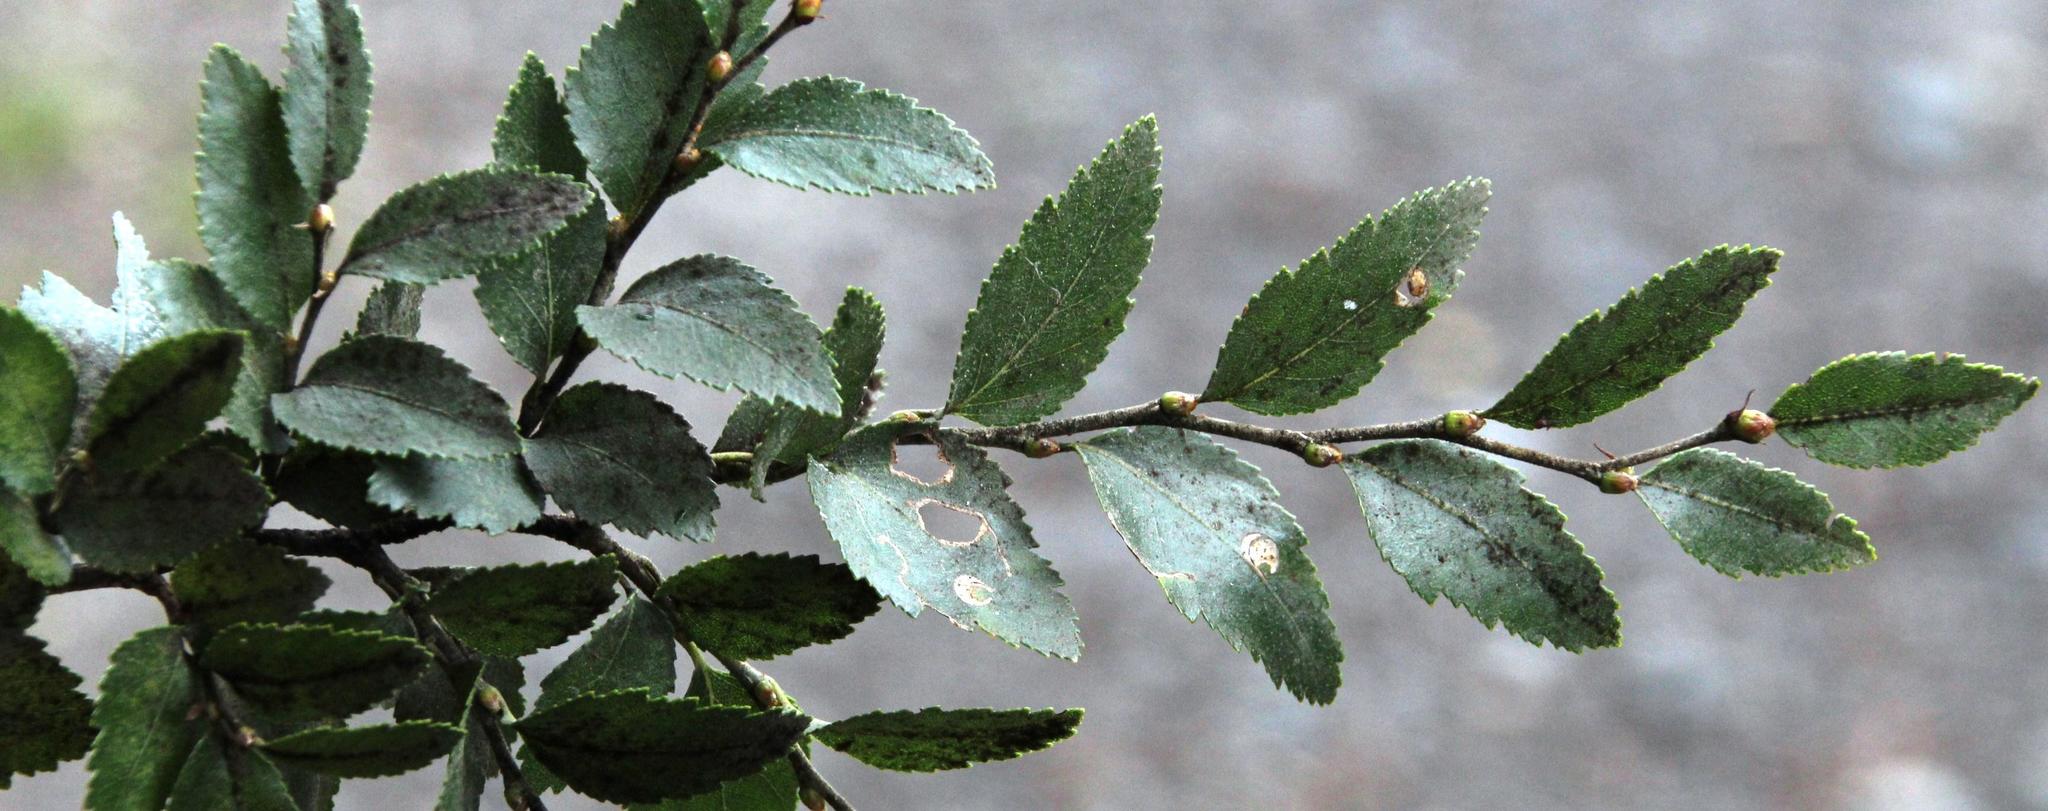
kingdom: Plantae
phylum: Tracheophyta
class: Magnoliopsida
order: Fagales
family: Nothofagaceae
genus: Nothofagus
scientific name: Nothofagus dombeyi
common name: Coigue
